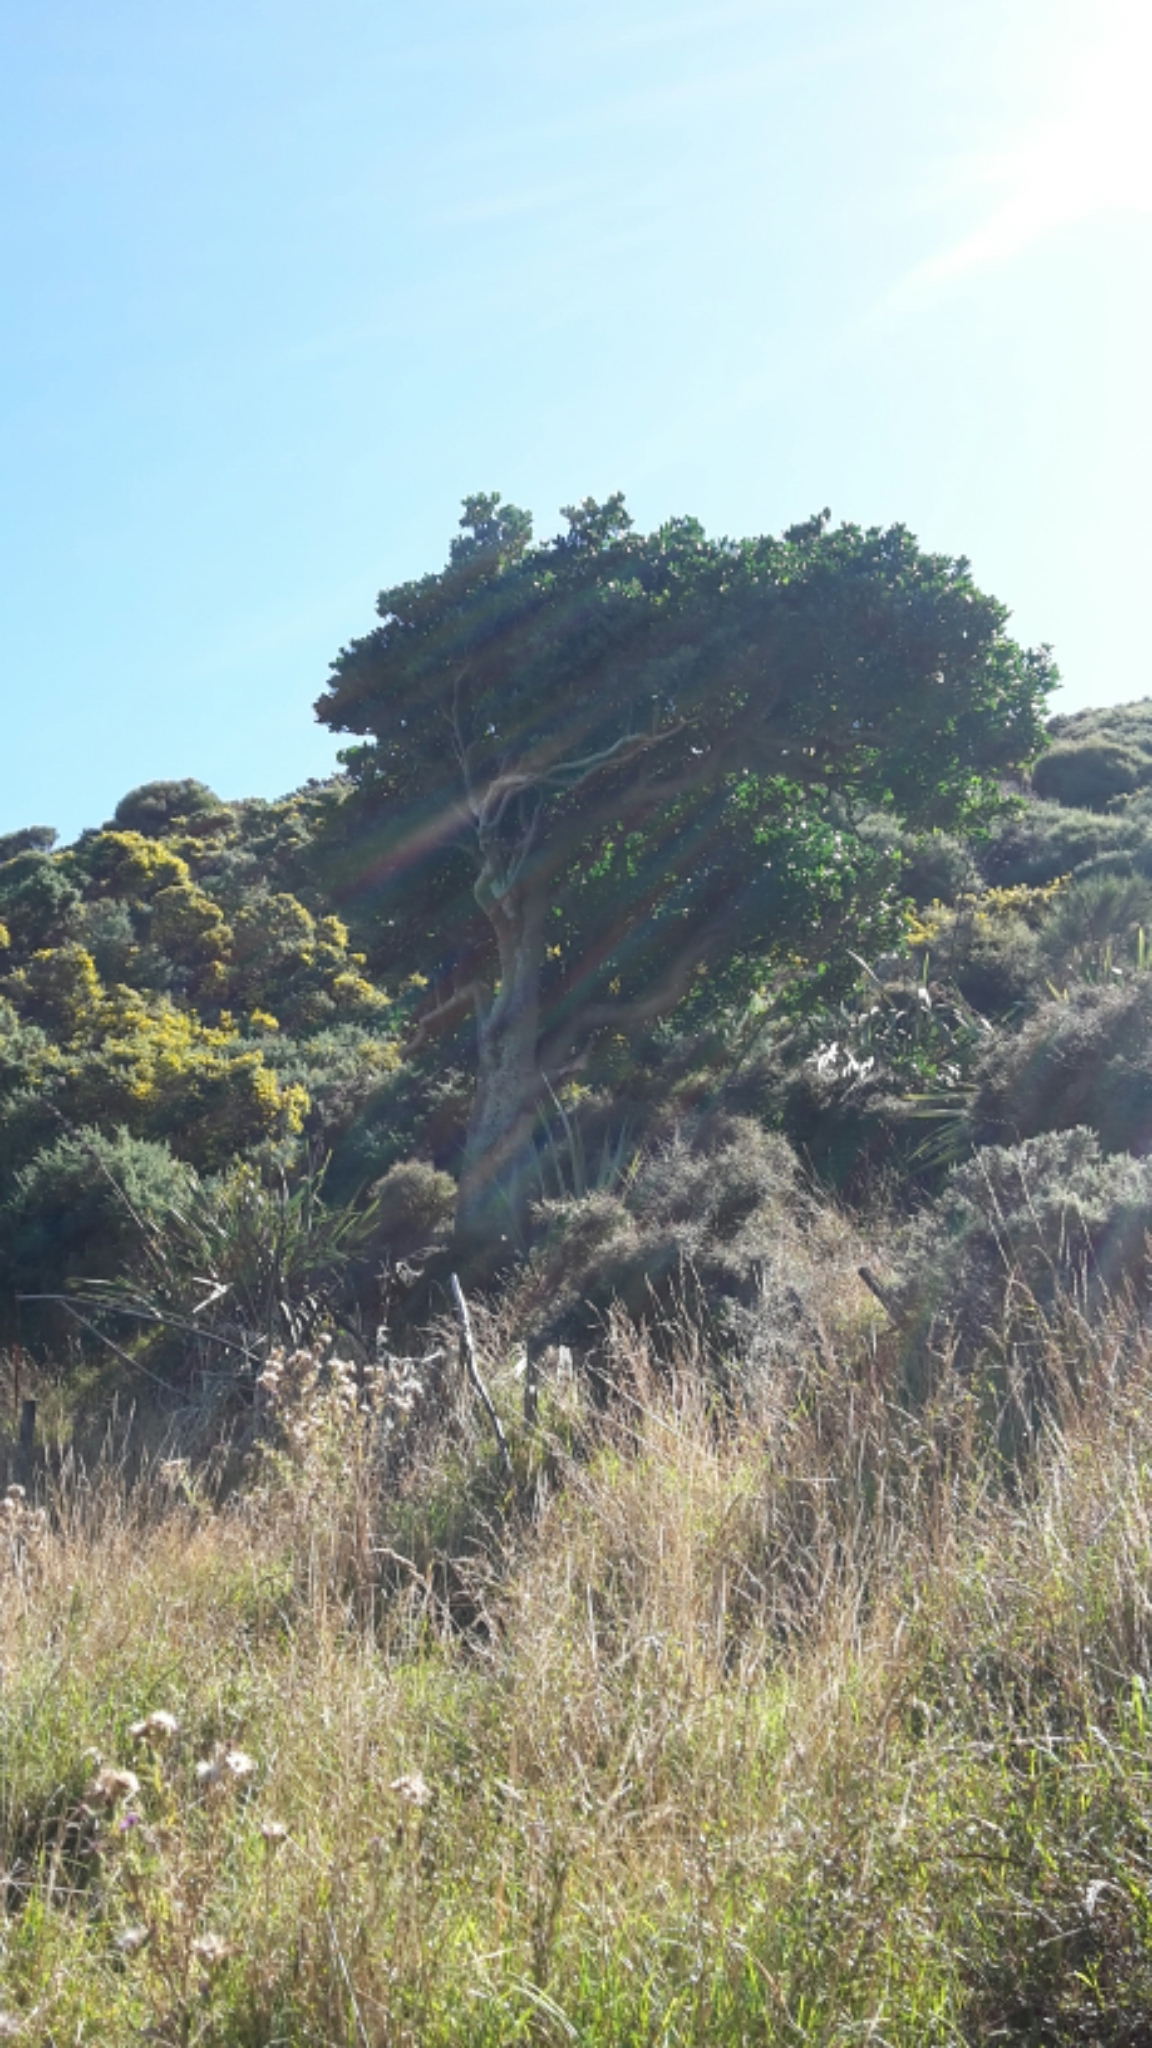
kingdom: Plantae
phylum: Tracheophyta
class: Magnoliopsida
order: Cucurbitales
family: Corynocarpaceae
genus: Corynocarpus
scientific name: Corynocarpus laevigatus
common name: New zealand laurel
